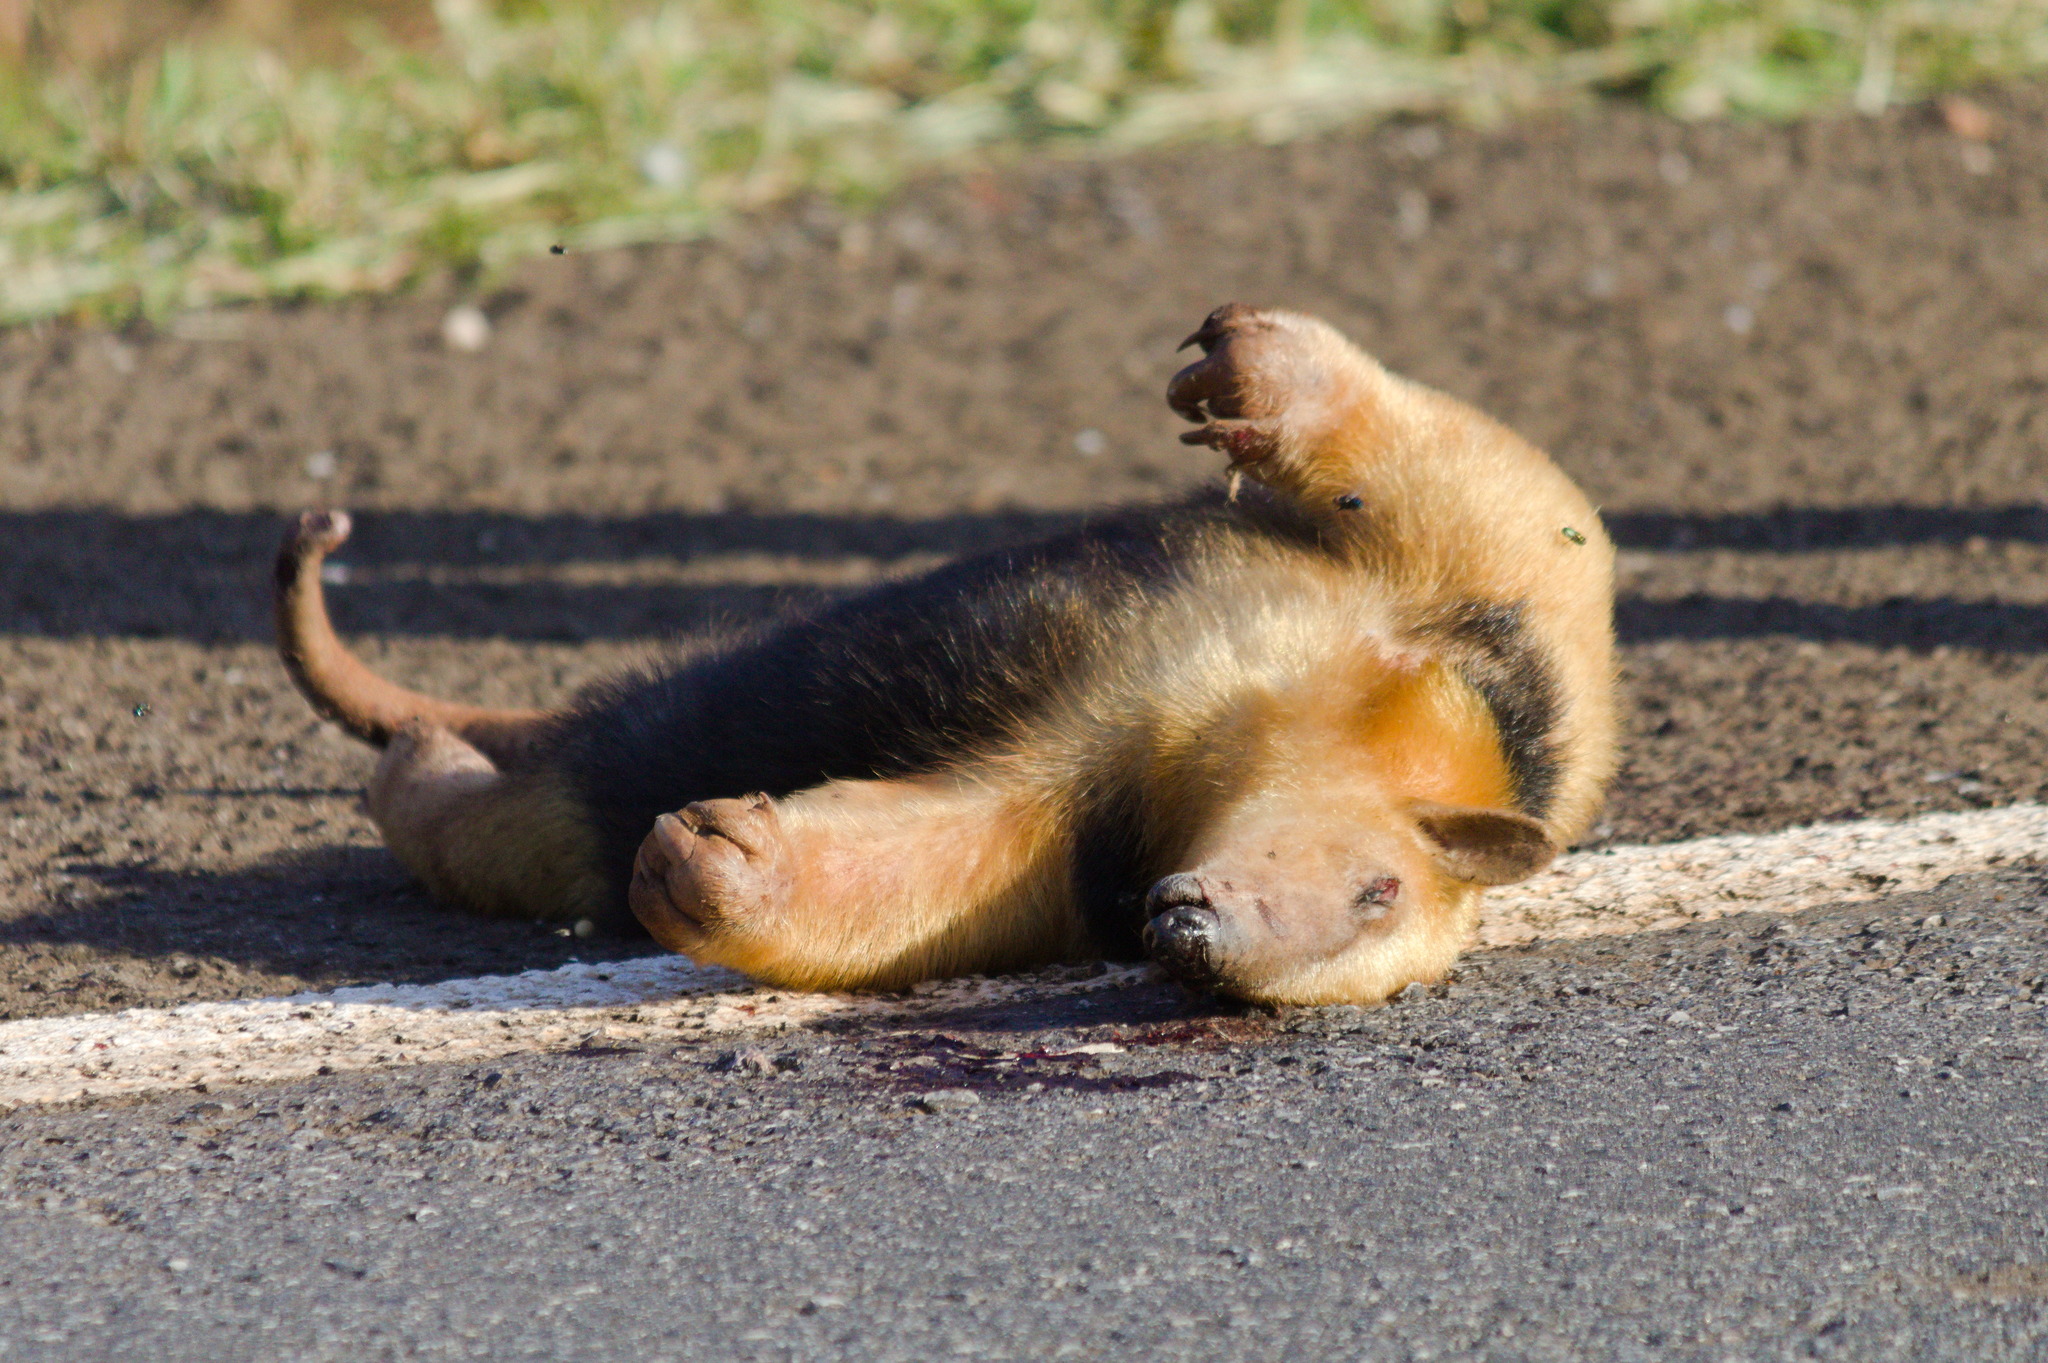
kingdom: Animalia
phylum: Chordata
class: Mammalia
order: Pilosa
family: Myrmecophagidae
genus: Tamandua
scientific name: Tamandua tetradactyla
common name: Southern tamandua
